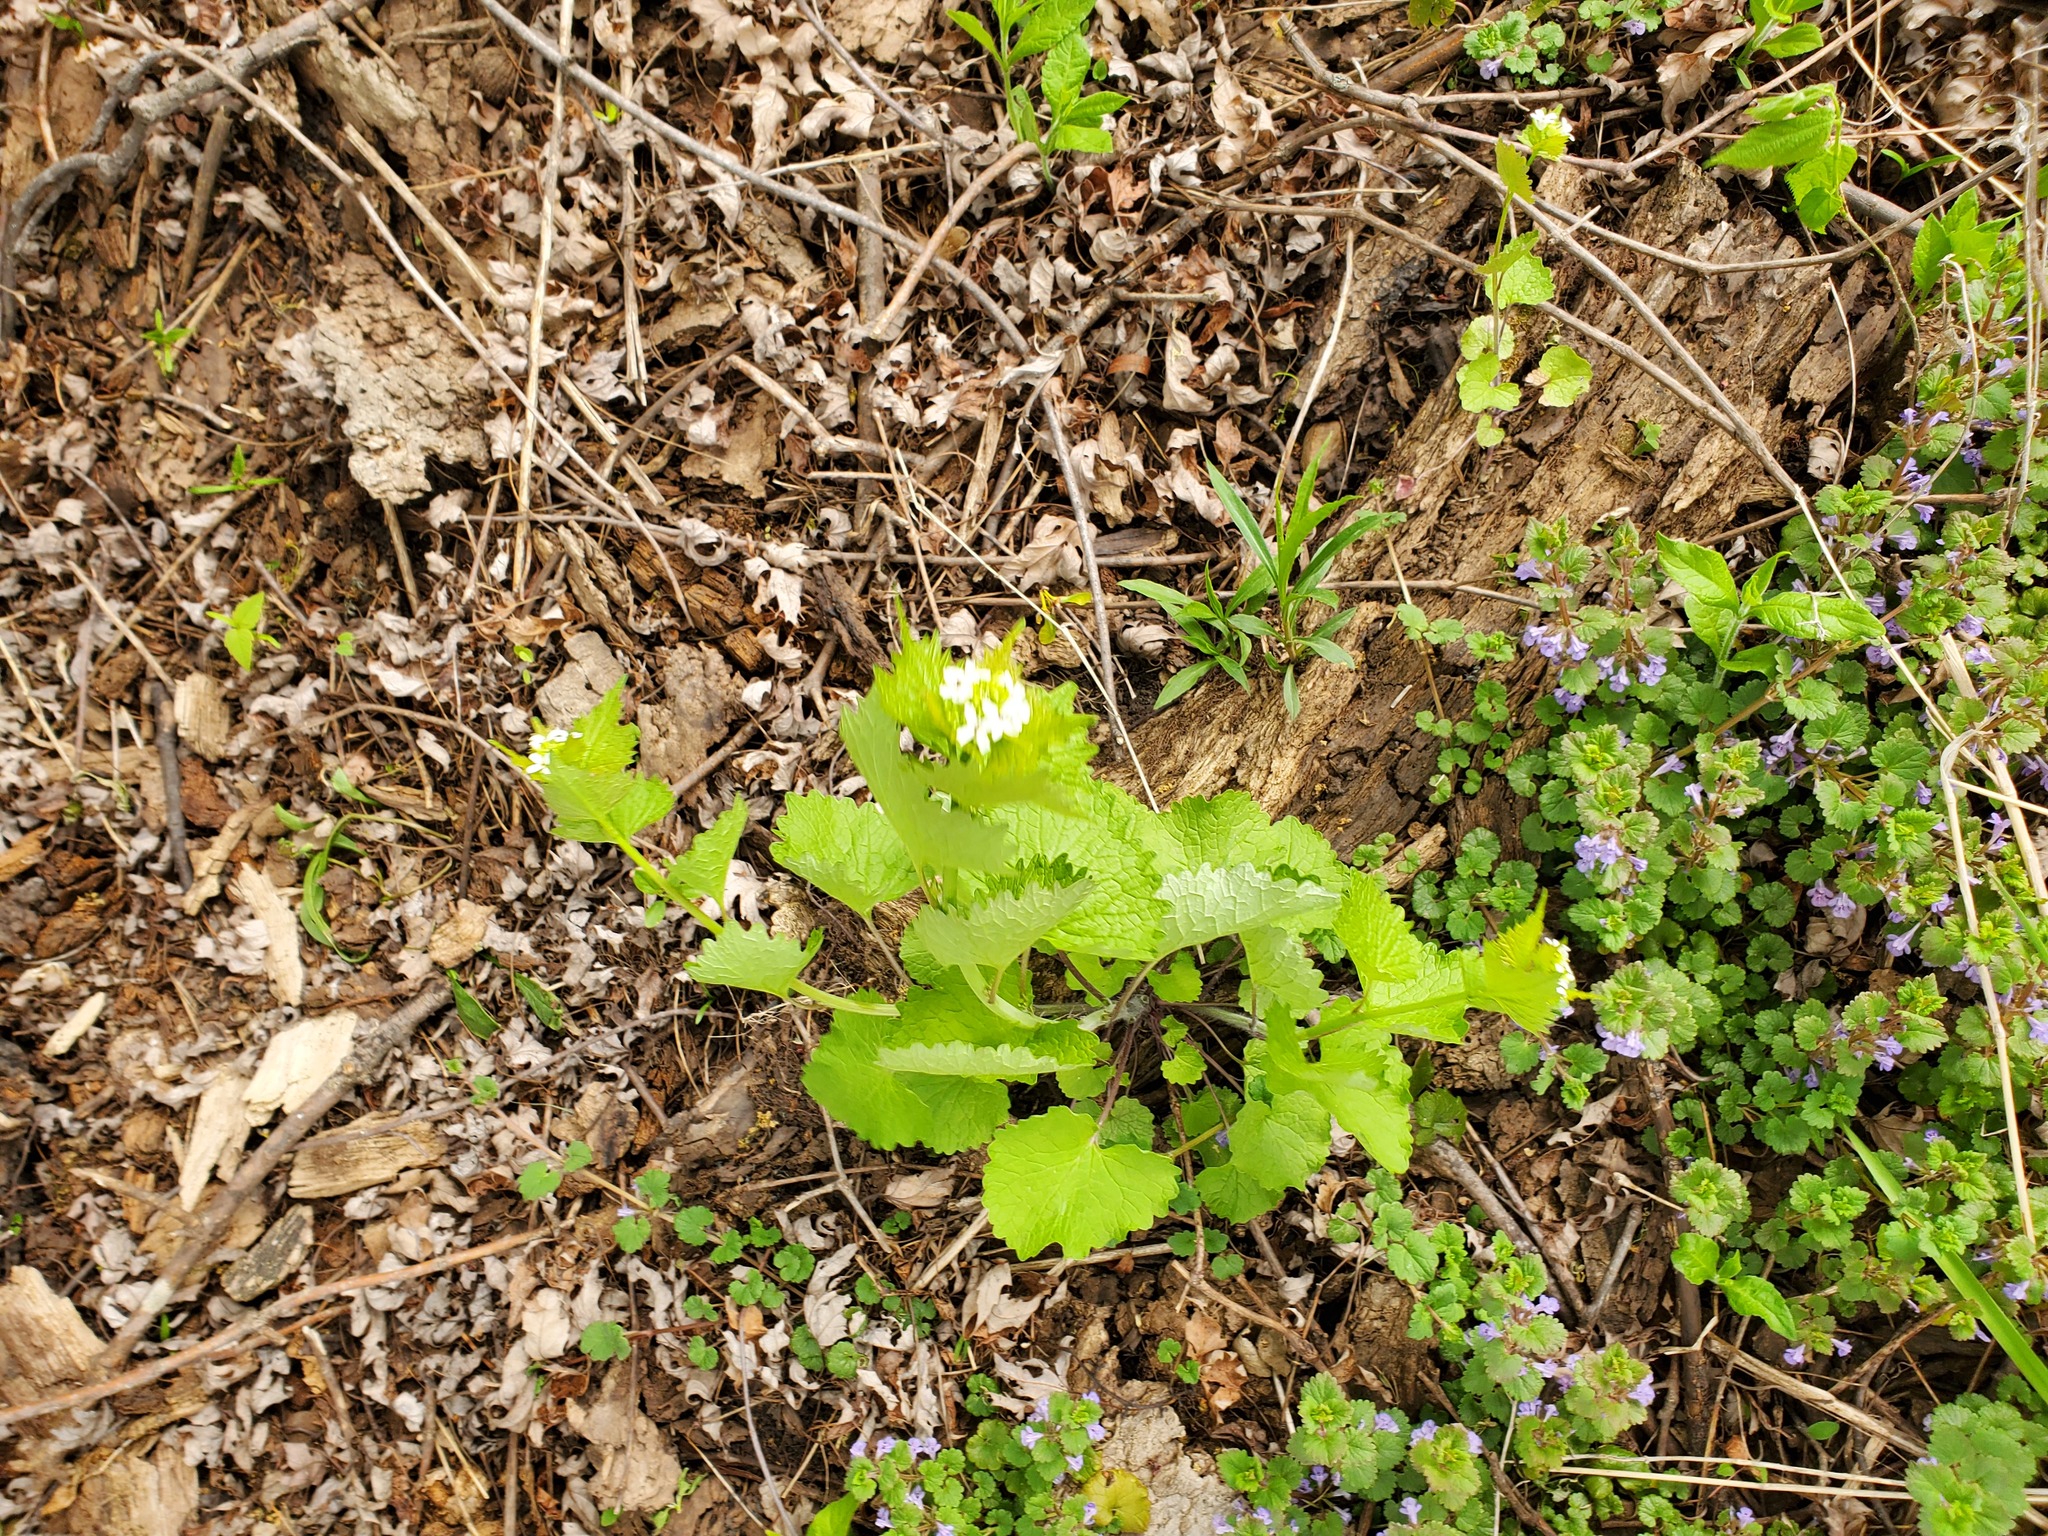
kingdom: Plantae
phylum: Tracheophyta
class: Magnoliopsida
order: Brassicales
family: Brassicaceae
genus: Alliaria
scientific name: Alliaria petiolata
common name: Garlic mustard
